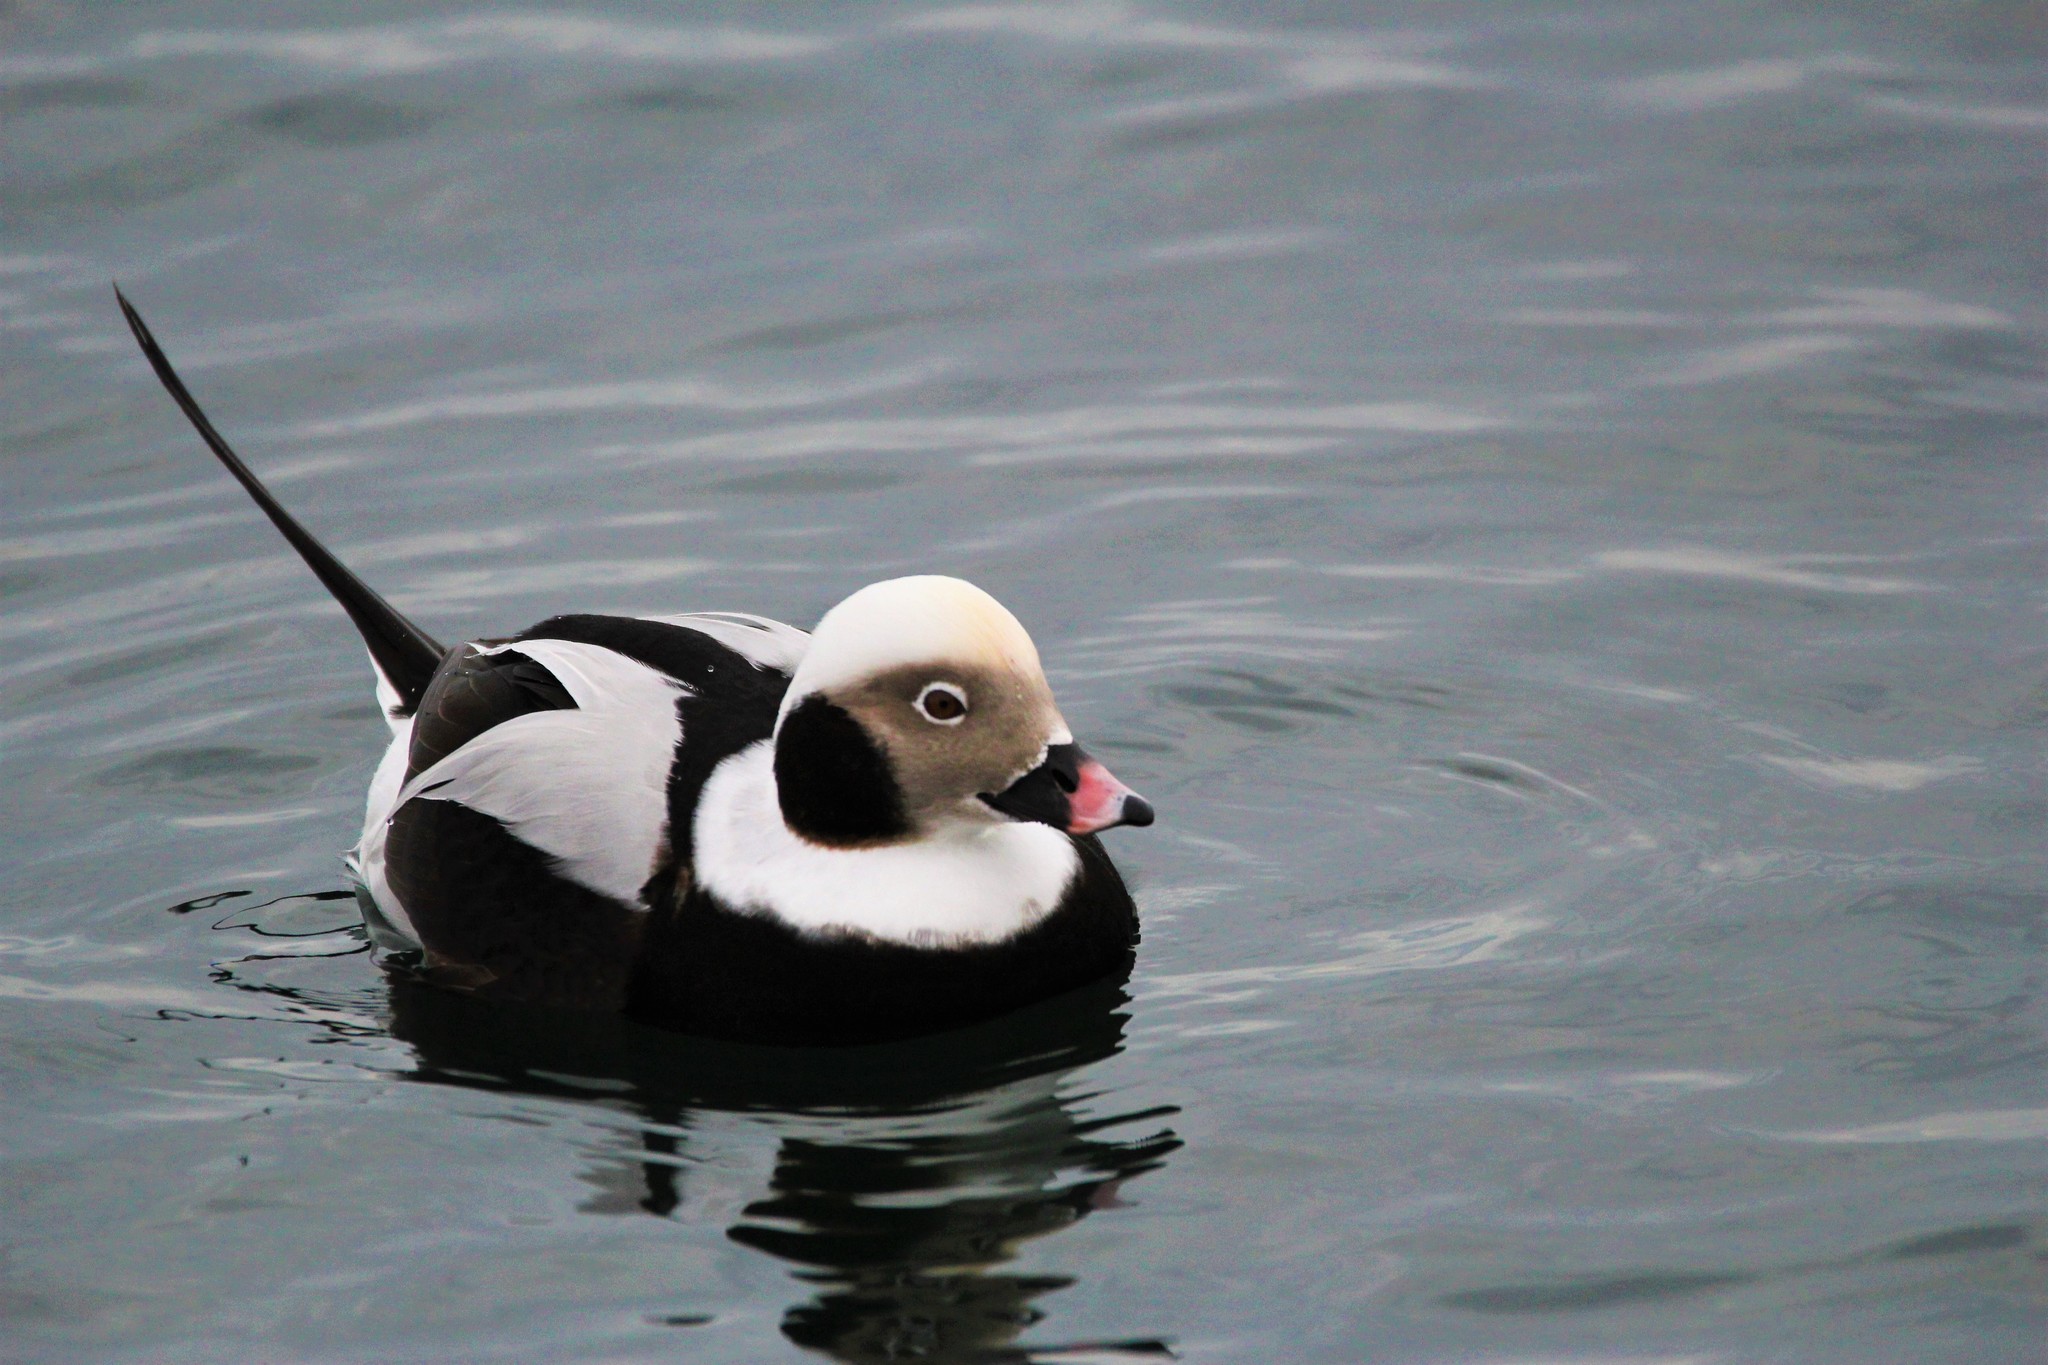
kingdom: Animalia
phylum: Chordata
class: Aves
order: Anseriformes
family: Anatidae
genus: Clangula
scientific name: Clangula hyemalis
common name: Long-tailed duck
